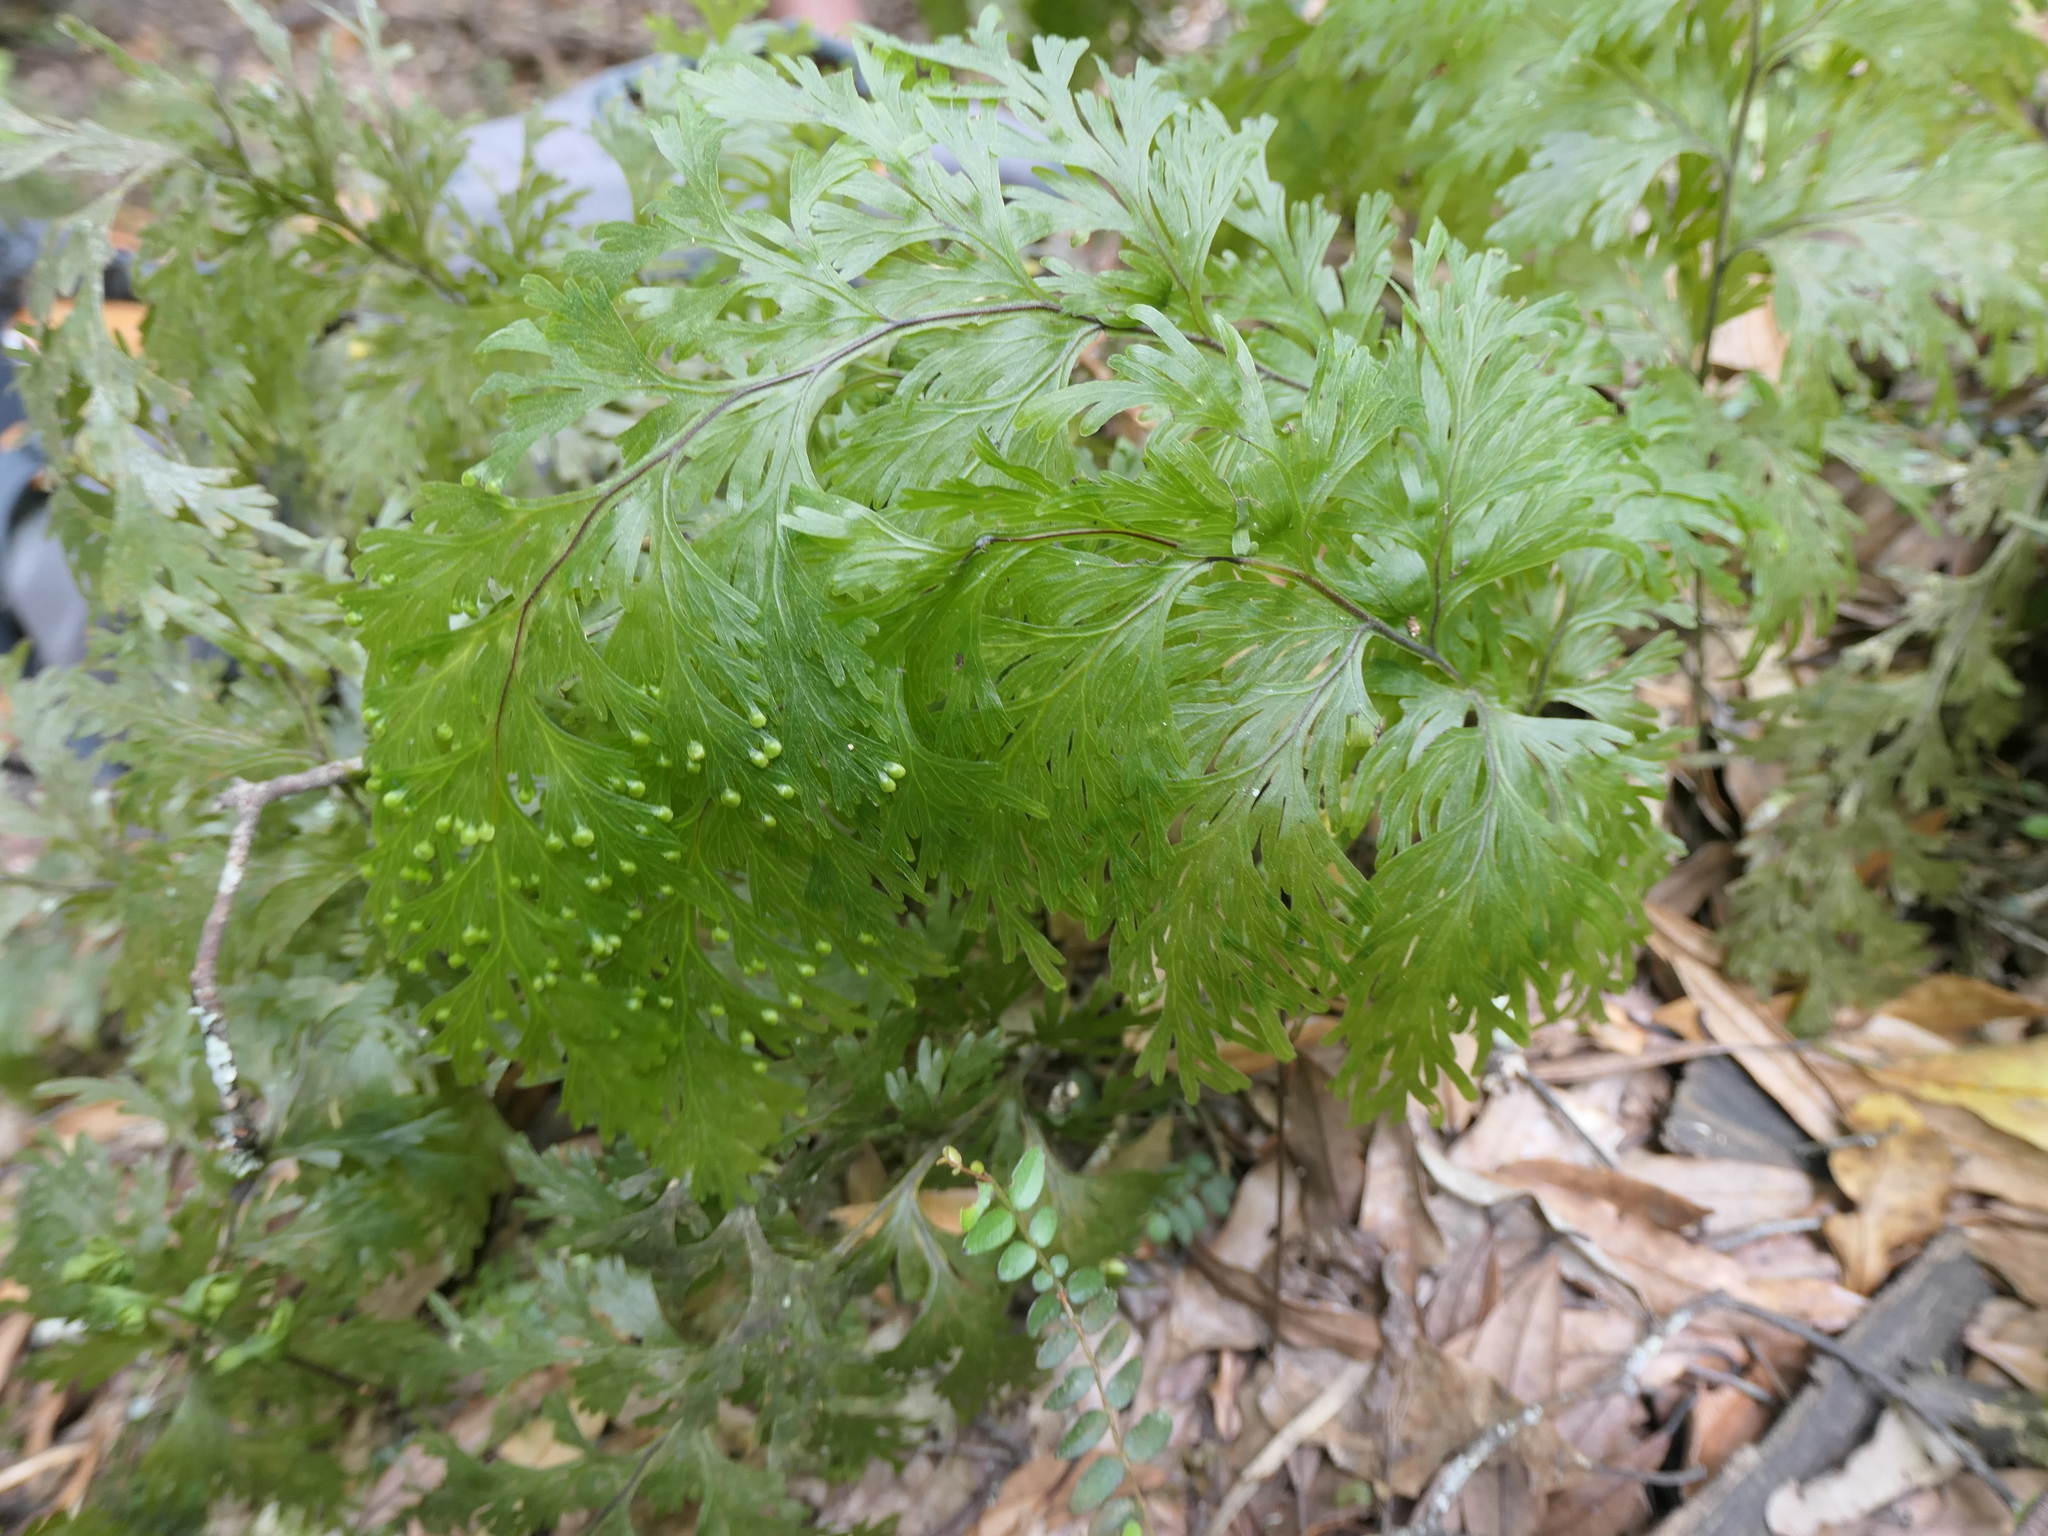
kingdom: Plantae
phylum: Tracheophyta
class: Polypodiopsida
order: Hymenophyllales
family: Hymenophyllaceae
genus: Hymenophyllum
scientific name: Hymenophyllum dilatatum
